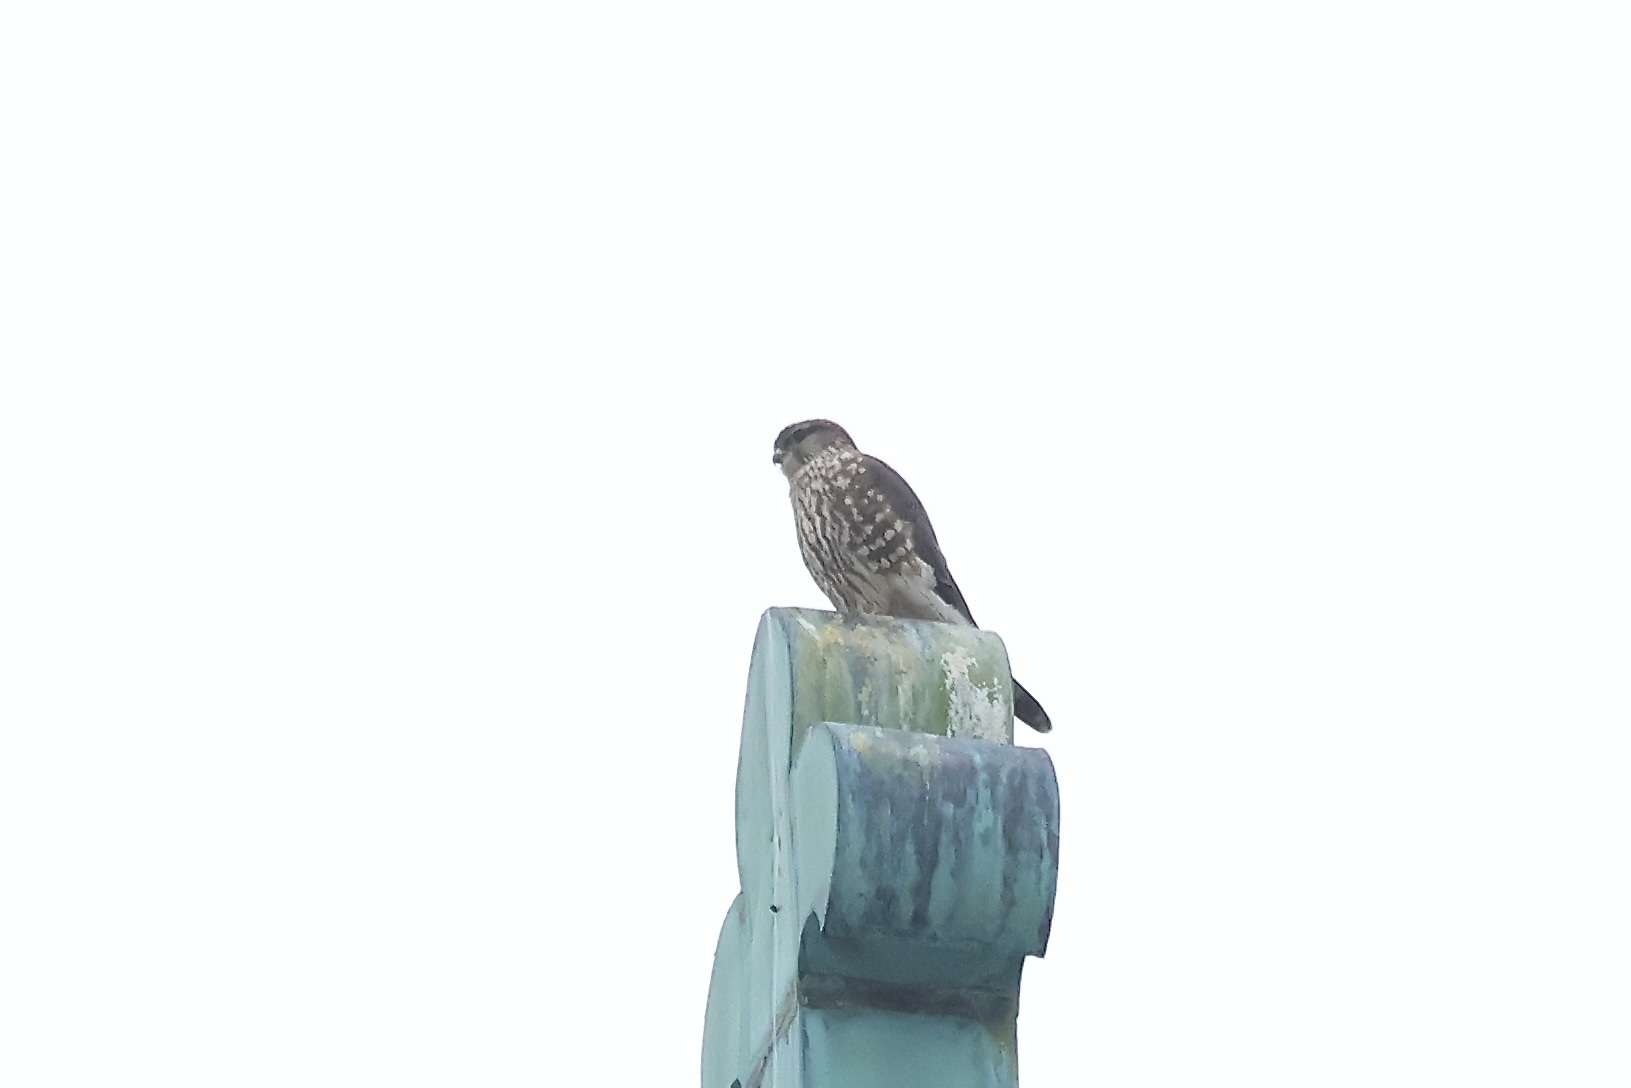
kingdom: Animalia
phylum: Chordata
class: Aves
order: Falconiformes
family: Falconidae
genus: Falco
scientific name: Falco columbarius
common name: Merlin
